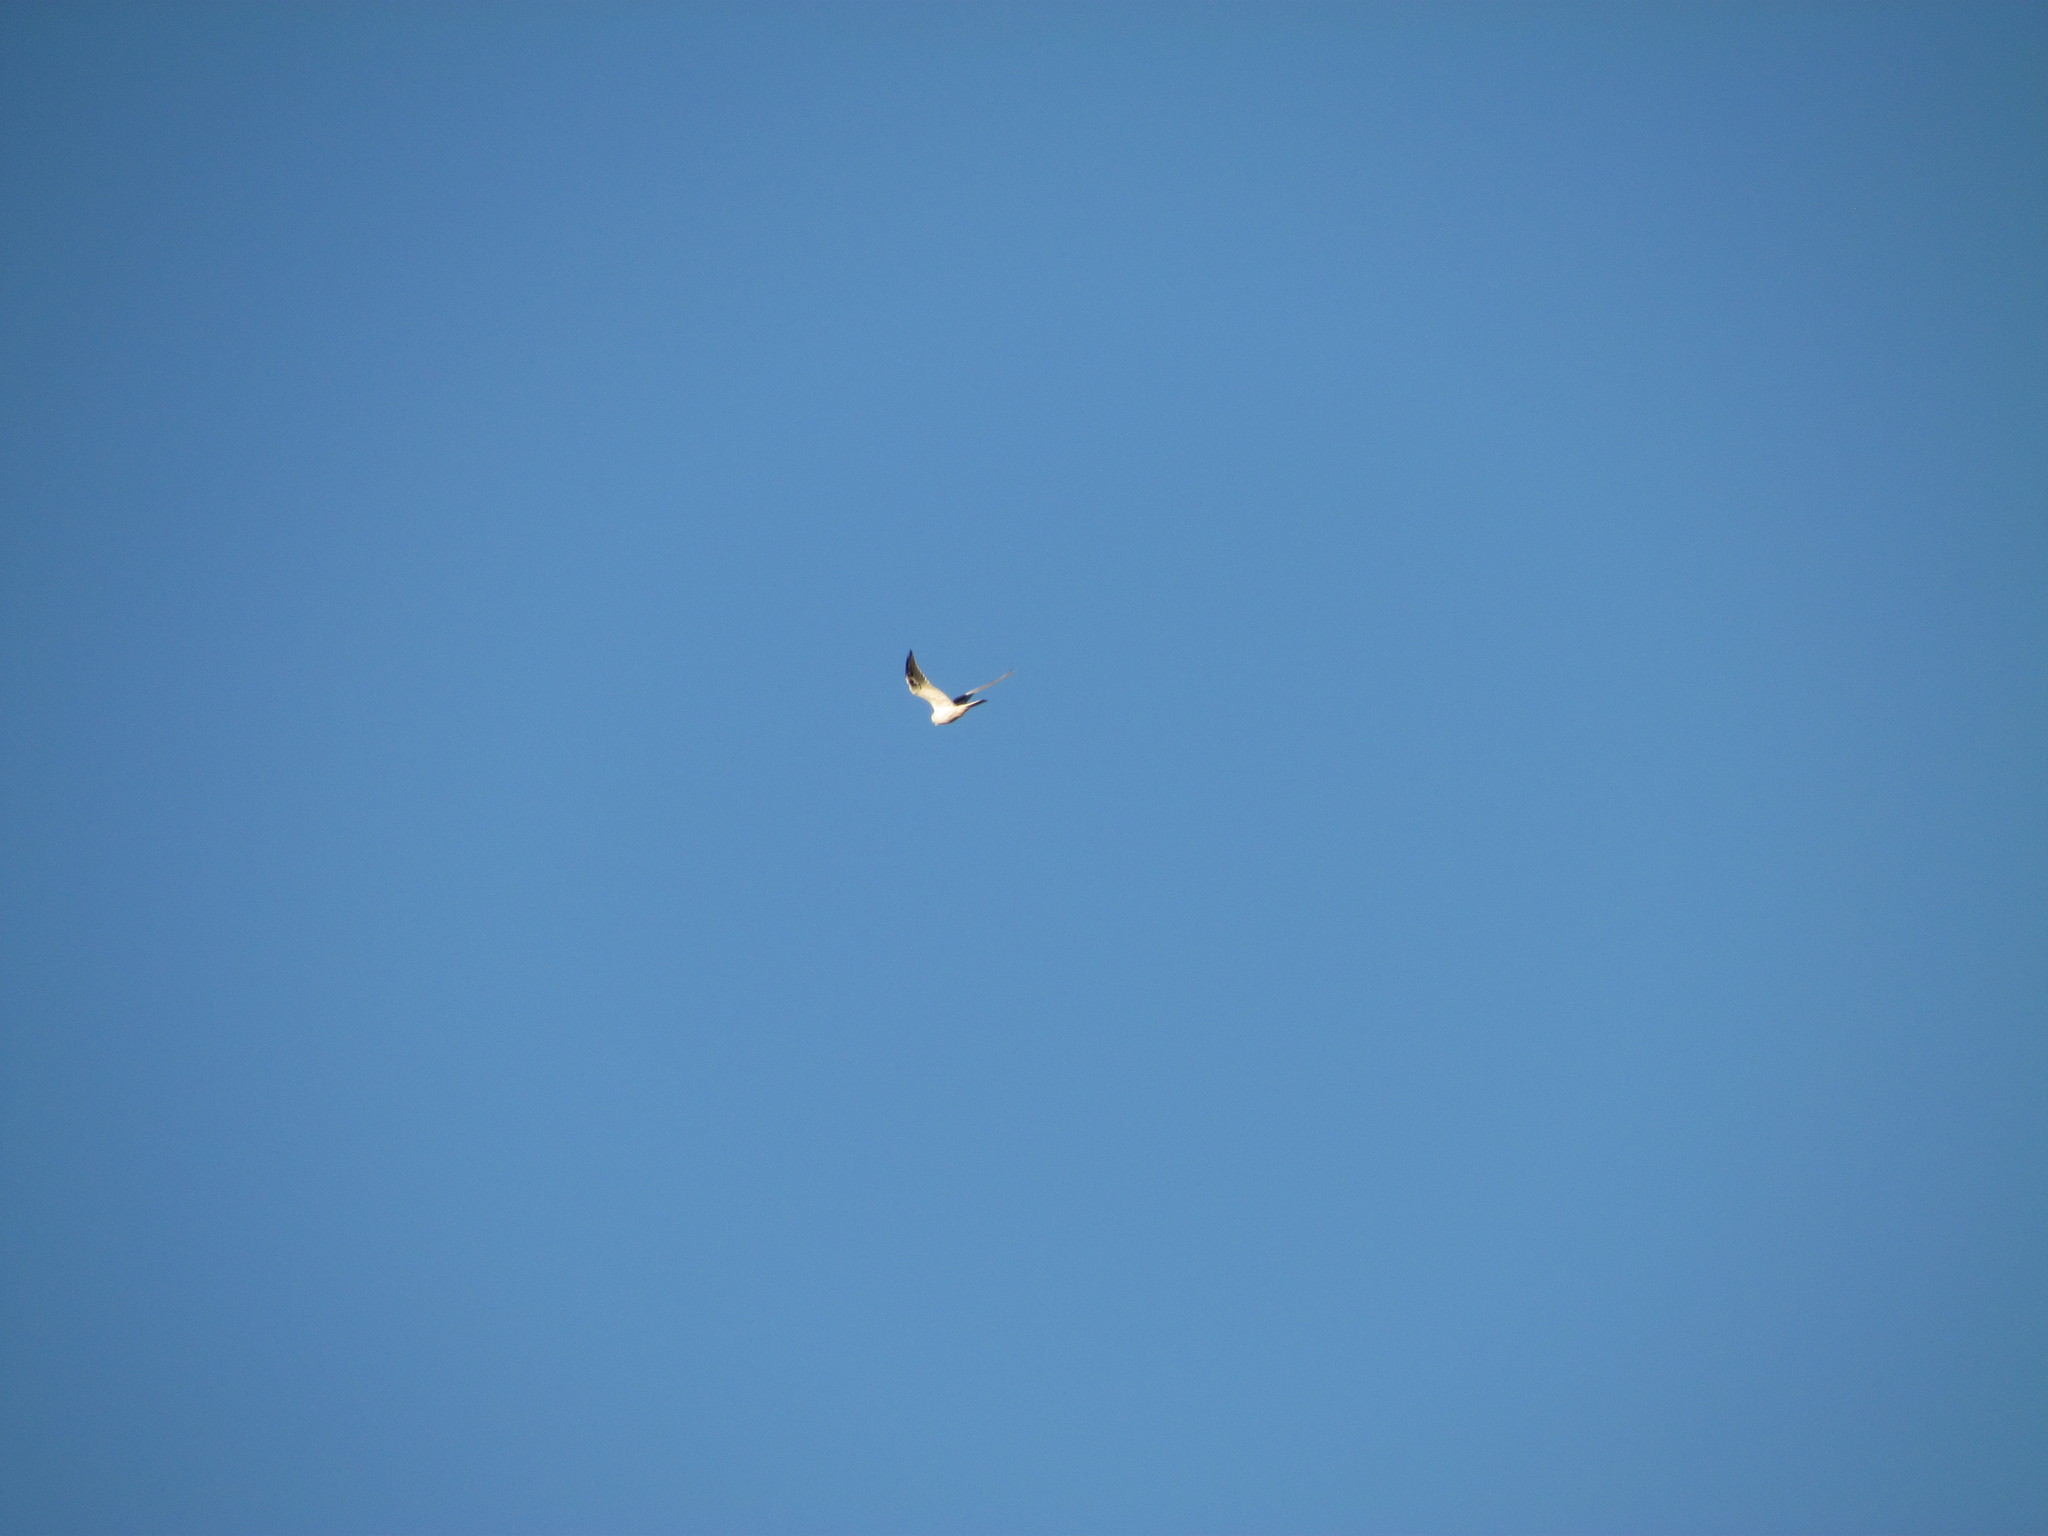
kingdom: Animalia
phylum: Chordata
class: Aves
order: Accipitriformes
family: Accipitridae
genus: Elanus
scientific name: Elanus leucurus
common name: White-tailed kite
